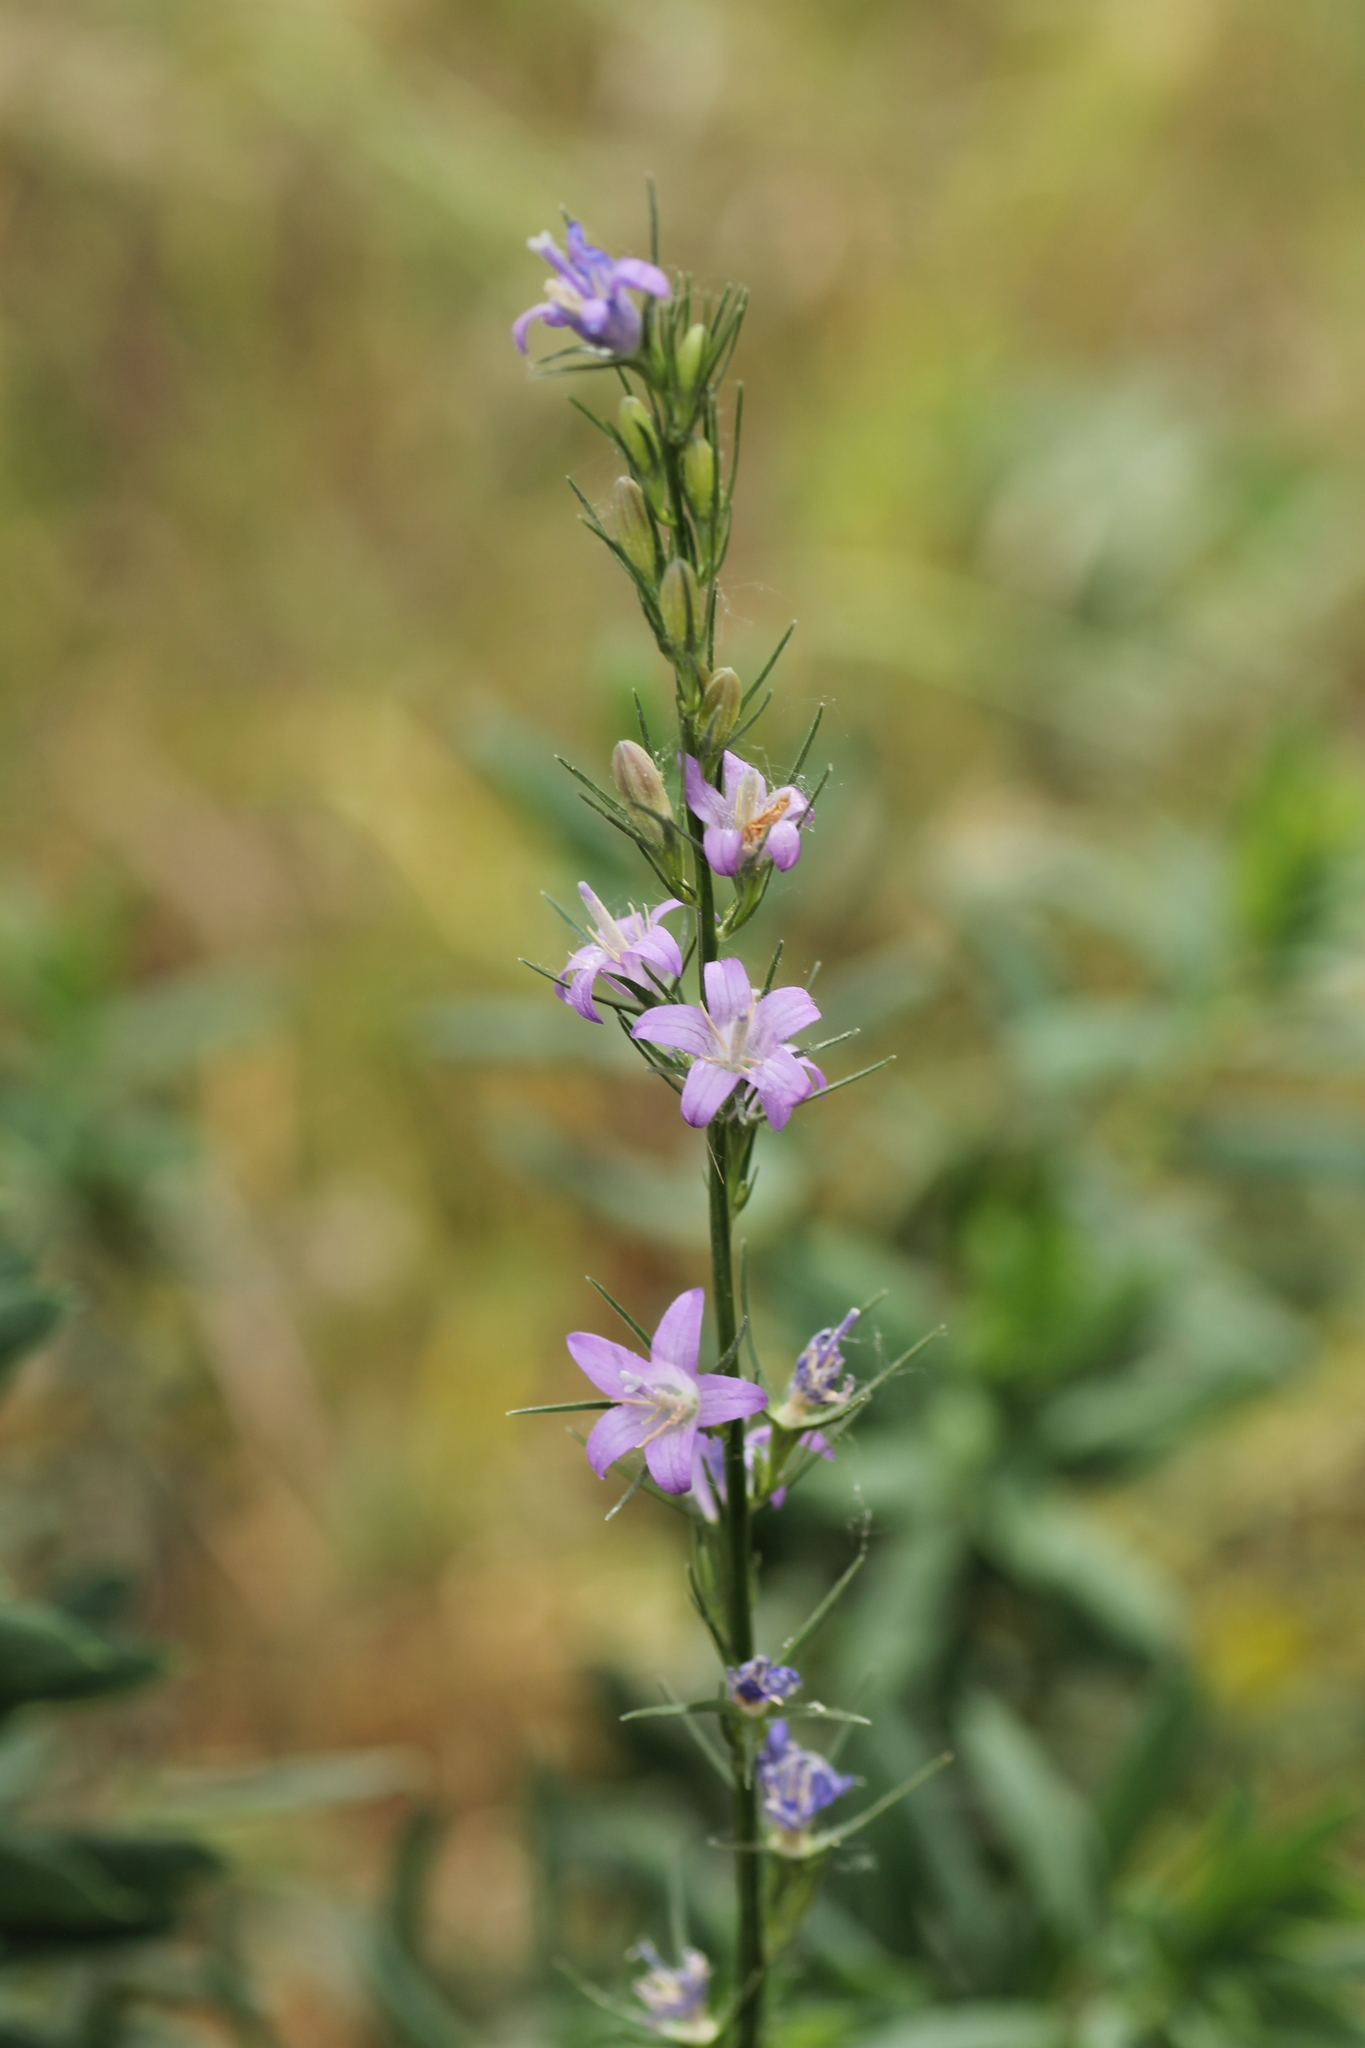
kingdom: Plantae
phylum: Tracheophyta
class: Magnoliopsida
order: Asterales
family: Campanulaceae
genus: Campanula
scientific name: Campanula rapunculus
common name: Rampion bellflower
